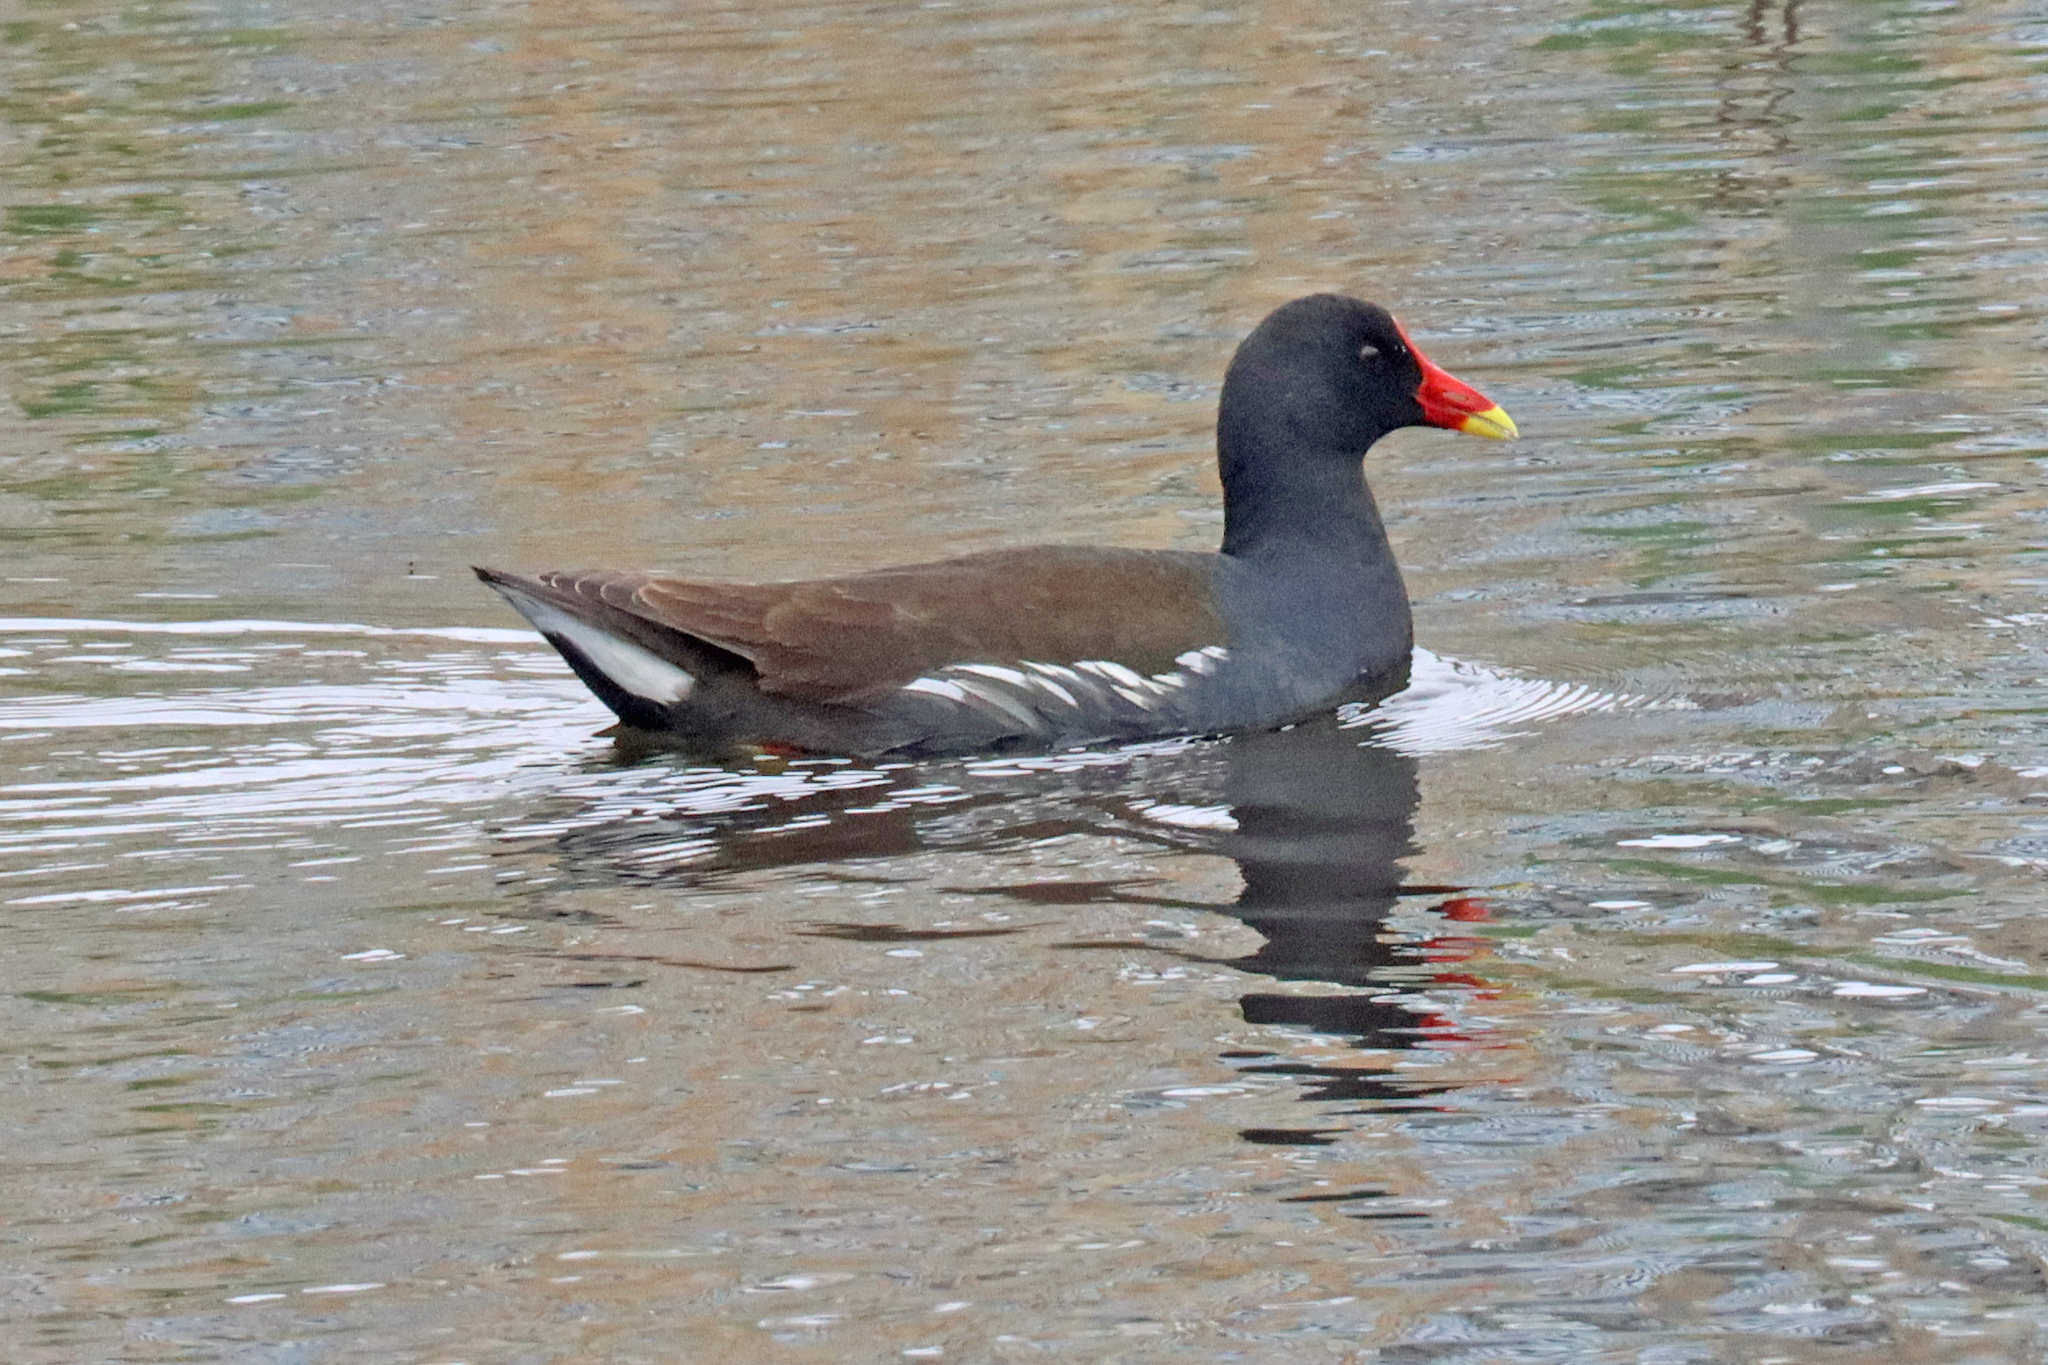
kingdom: Animalia
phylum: Chordata
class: Aves
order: Gruiformes
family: Rallidae
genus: Gallinula
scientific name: Gallinula chloropus
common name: Common moorhen
